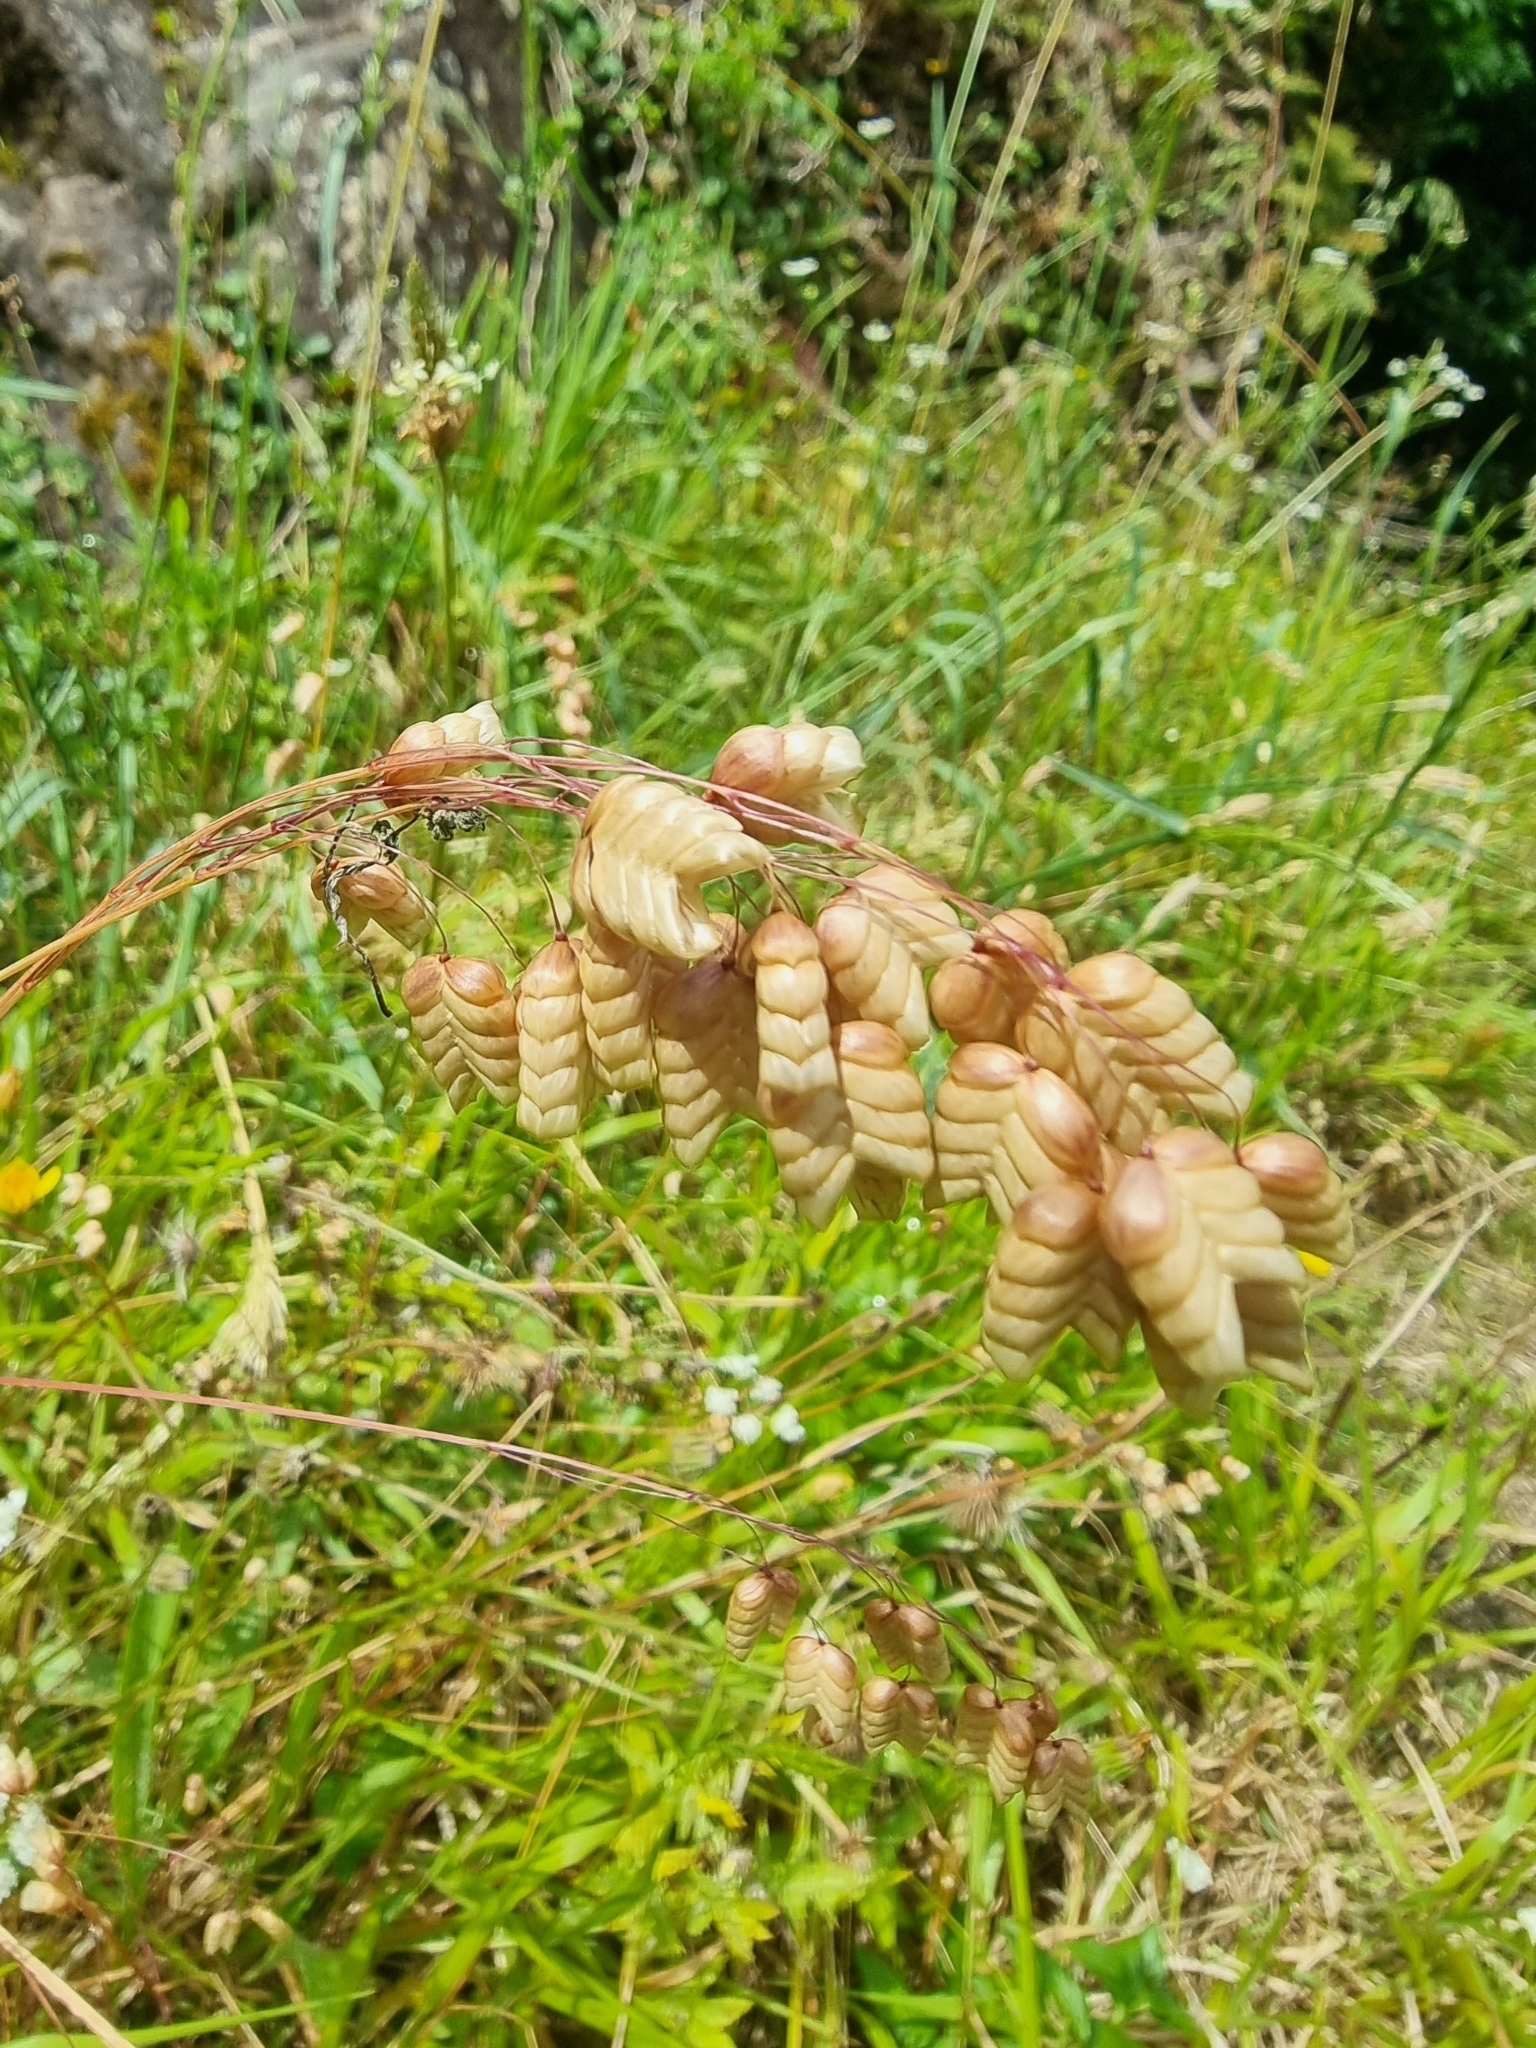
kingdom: Plantae
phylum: Tracheophyta
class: Liliopsida
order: Poales
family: Poaceae
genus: Briza
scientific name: Briza maxima
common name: Big quakinggrass
